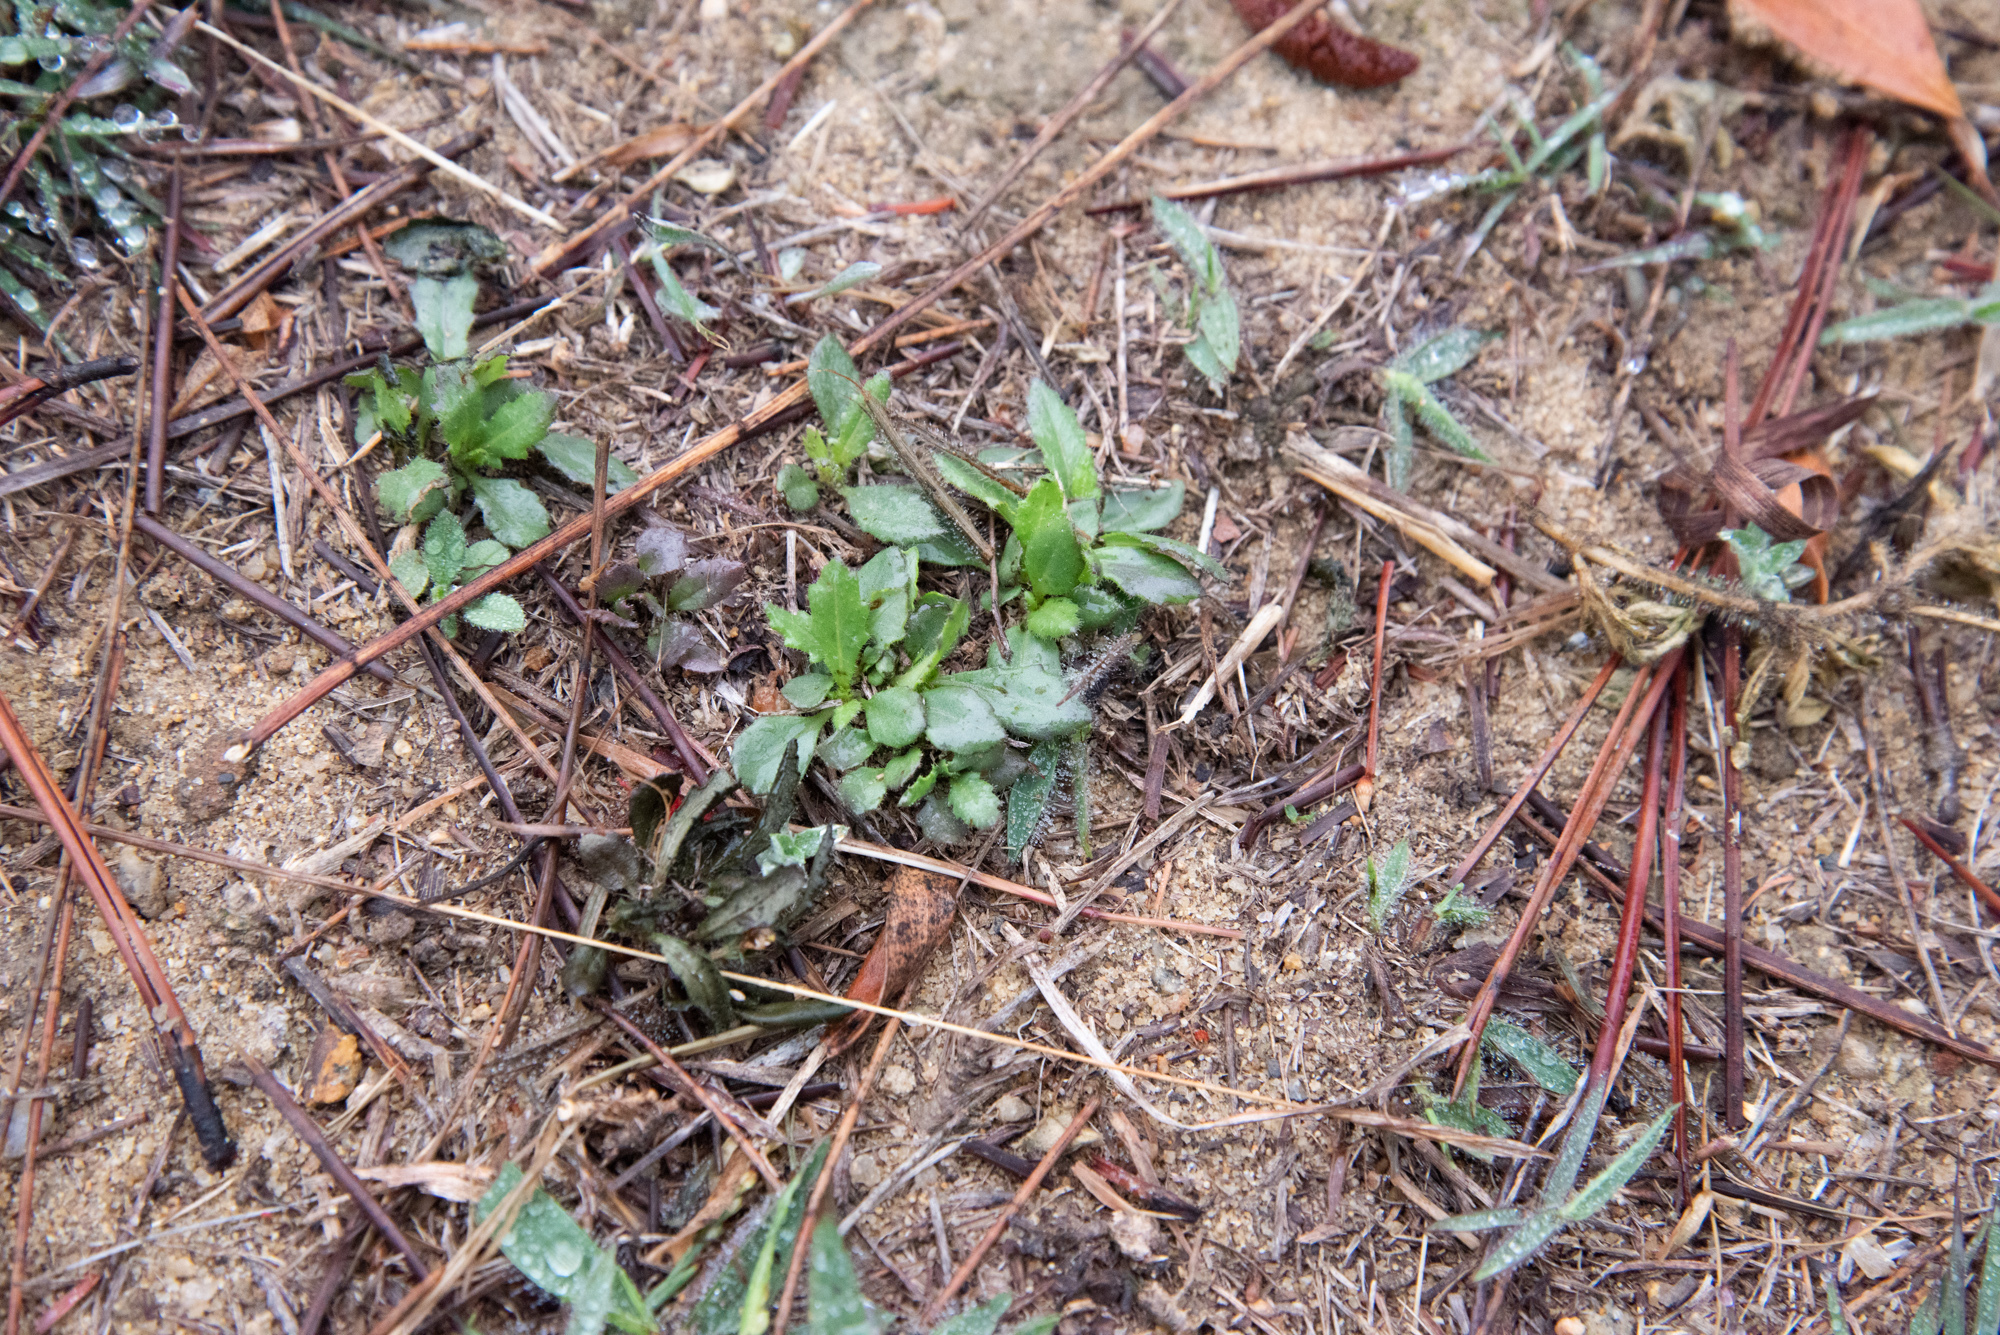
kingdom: Plantae
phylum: Tracheophyta
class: Magnoliopsida
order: Asterales
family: Goodeniaceae
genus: Goodenia
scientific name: Goodenia pilosa
